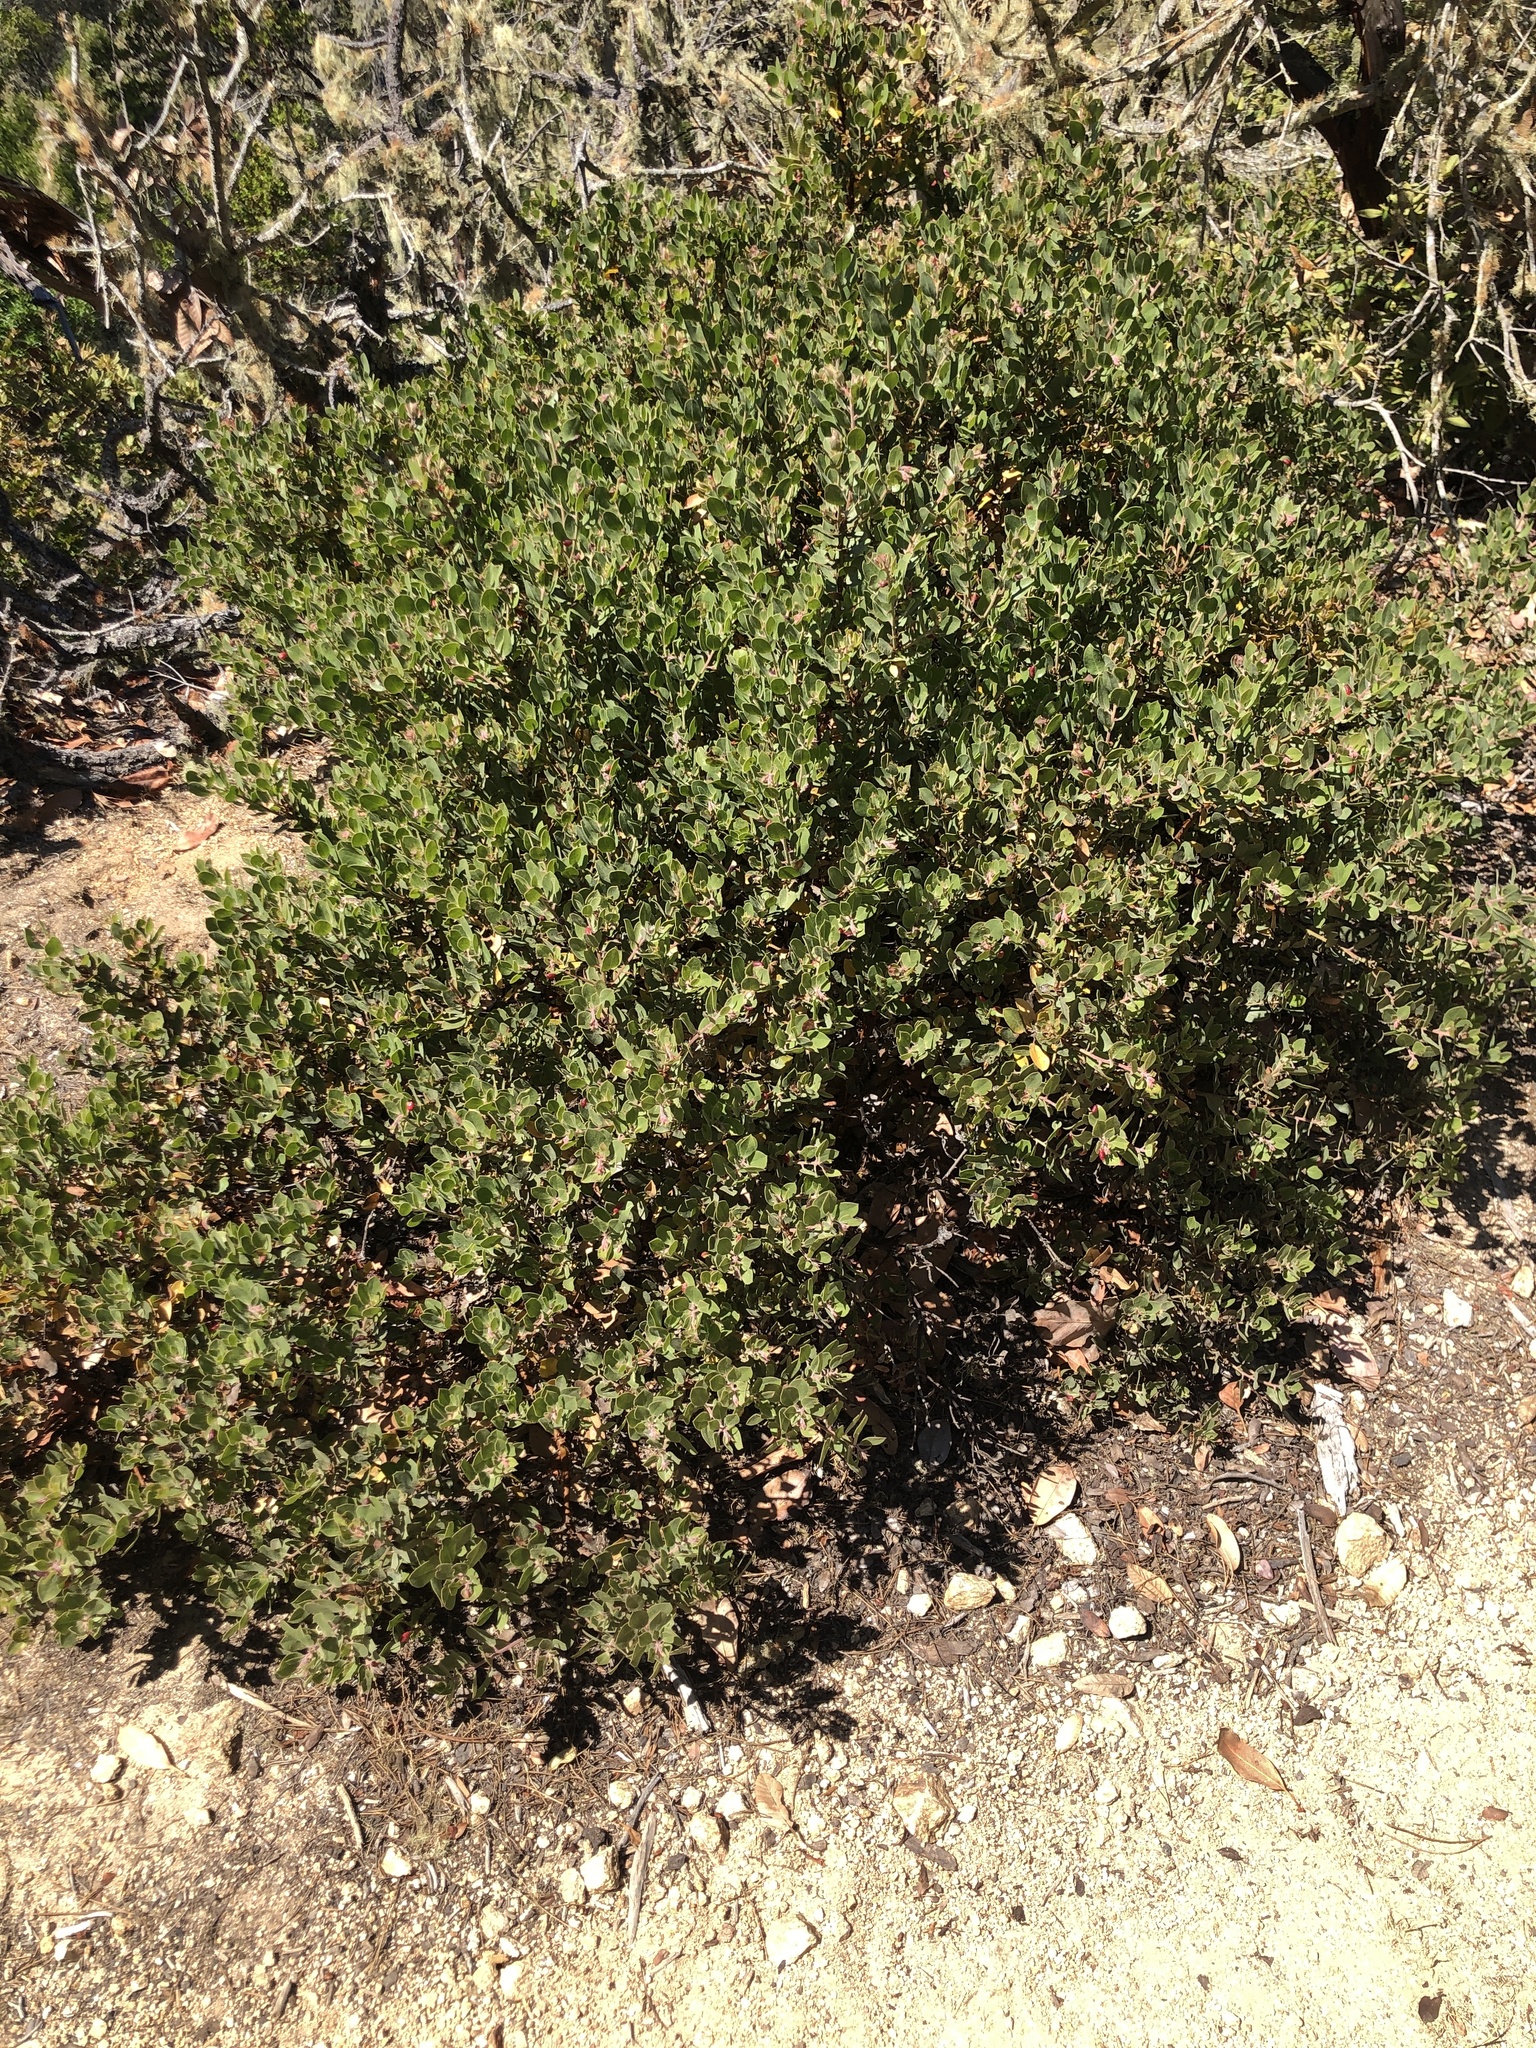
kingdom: Plantae
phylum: Tracheophyta
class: Magnoliopsida
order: Ericales
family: Ericaceae
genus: Arctostaphylos
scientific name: Arctostaphylos glandulosa
